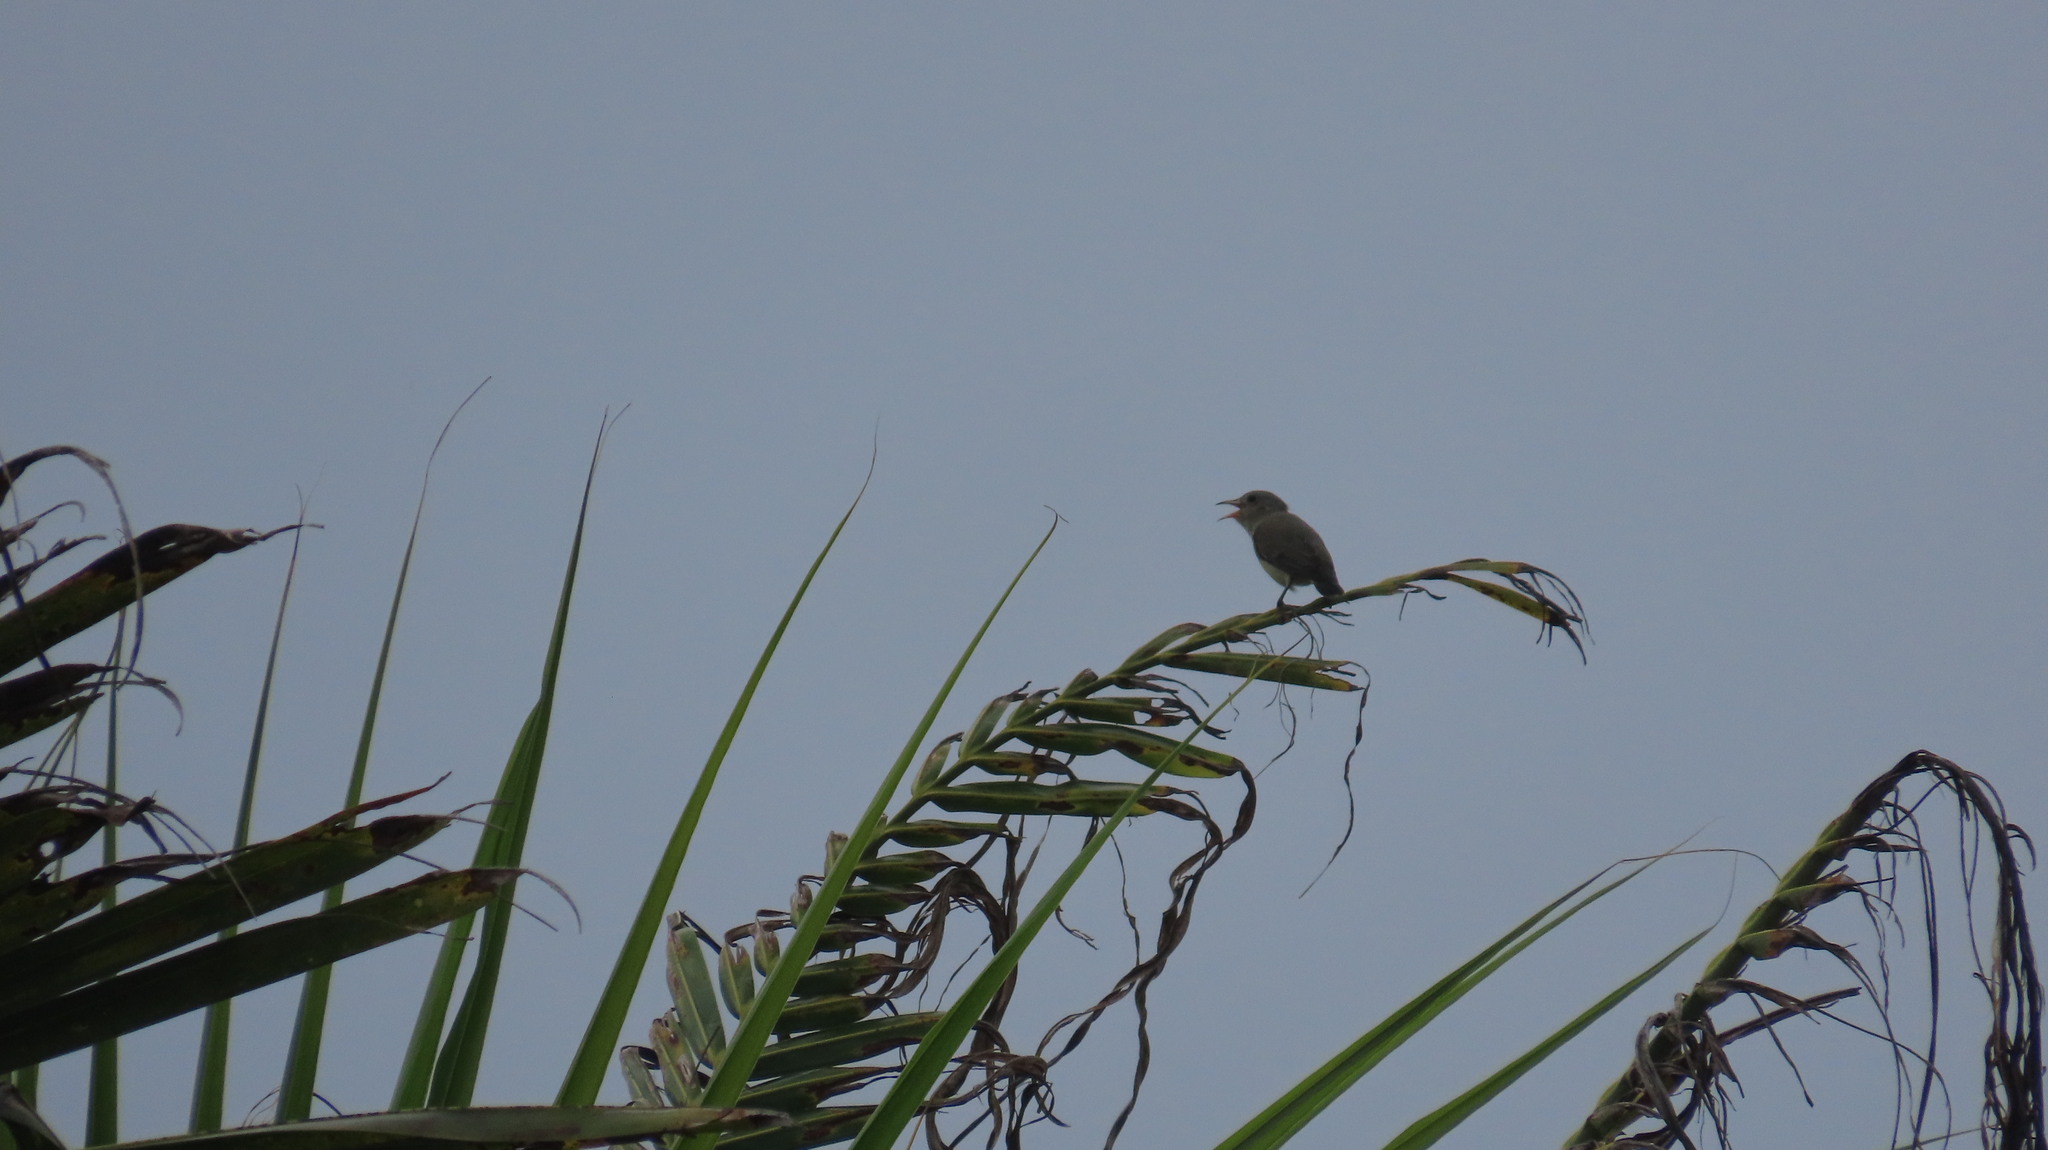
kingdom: Animalia
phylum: Chordata
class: Aves
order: Passeriformes
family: Dicaeidae
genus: Dicaeum
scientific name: Dicaeum erythrorhynchos
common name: Pale-billed flowerpecker
